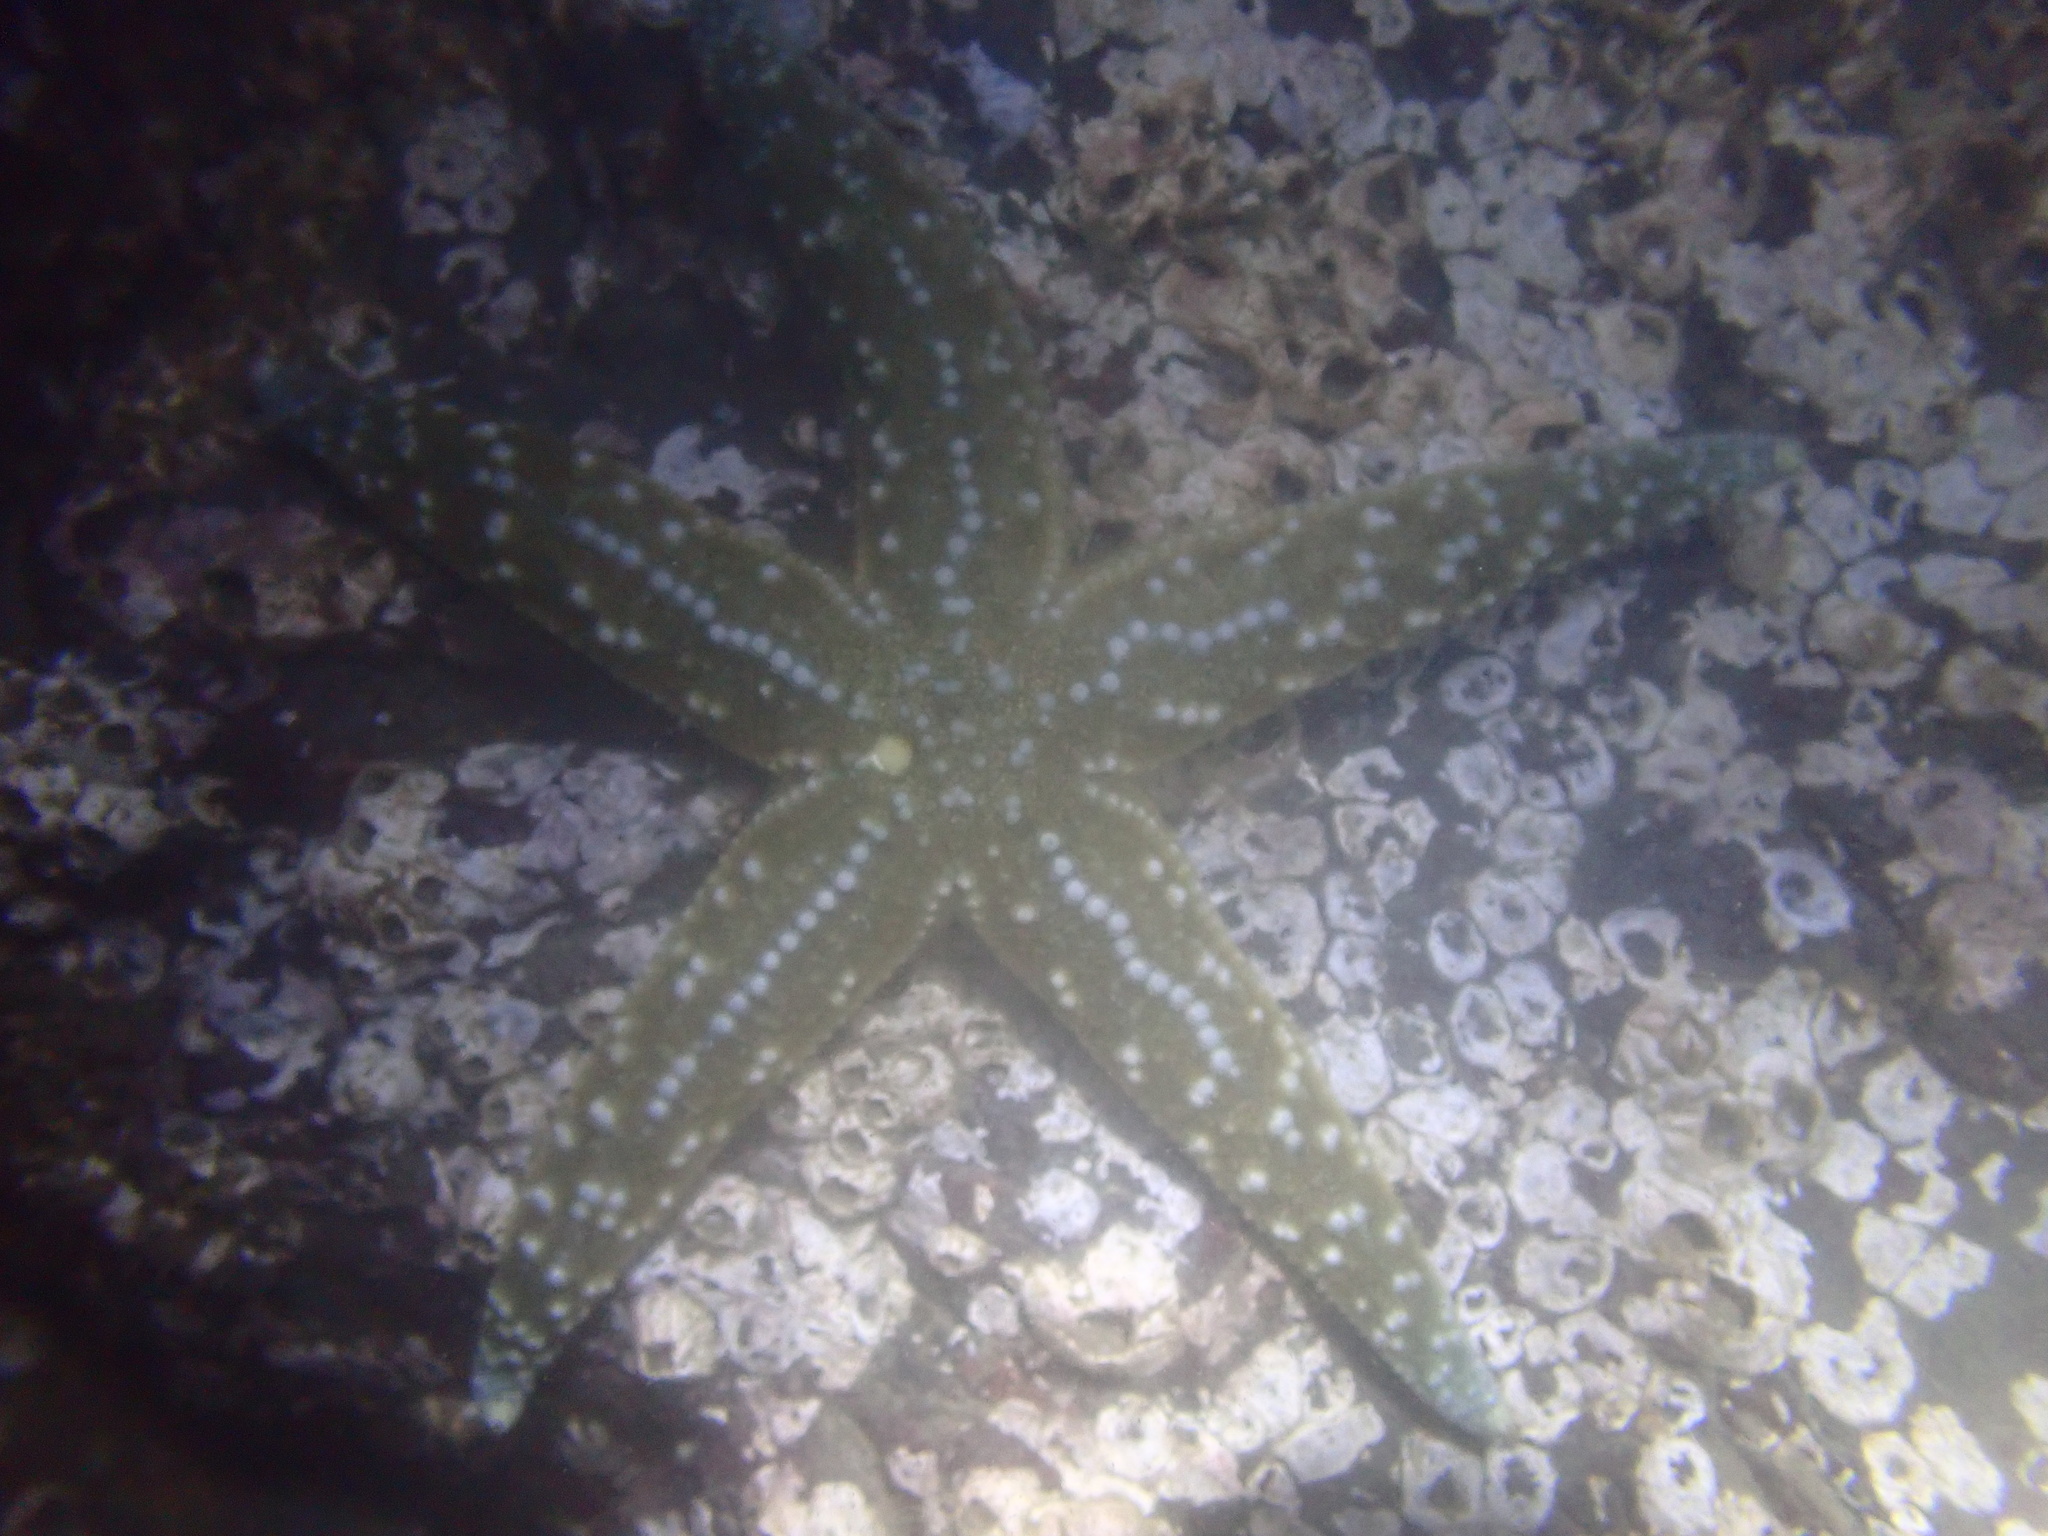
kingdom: Animalia
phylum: Echinodermata
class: Asteroidea
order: Forcipulatida
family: Asteriidae
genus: Evasterias
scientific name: Evasterias troschelii
